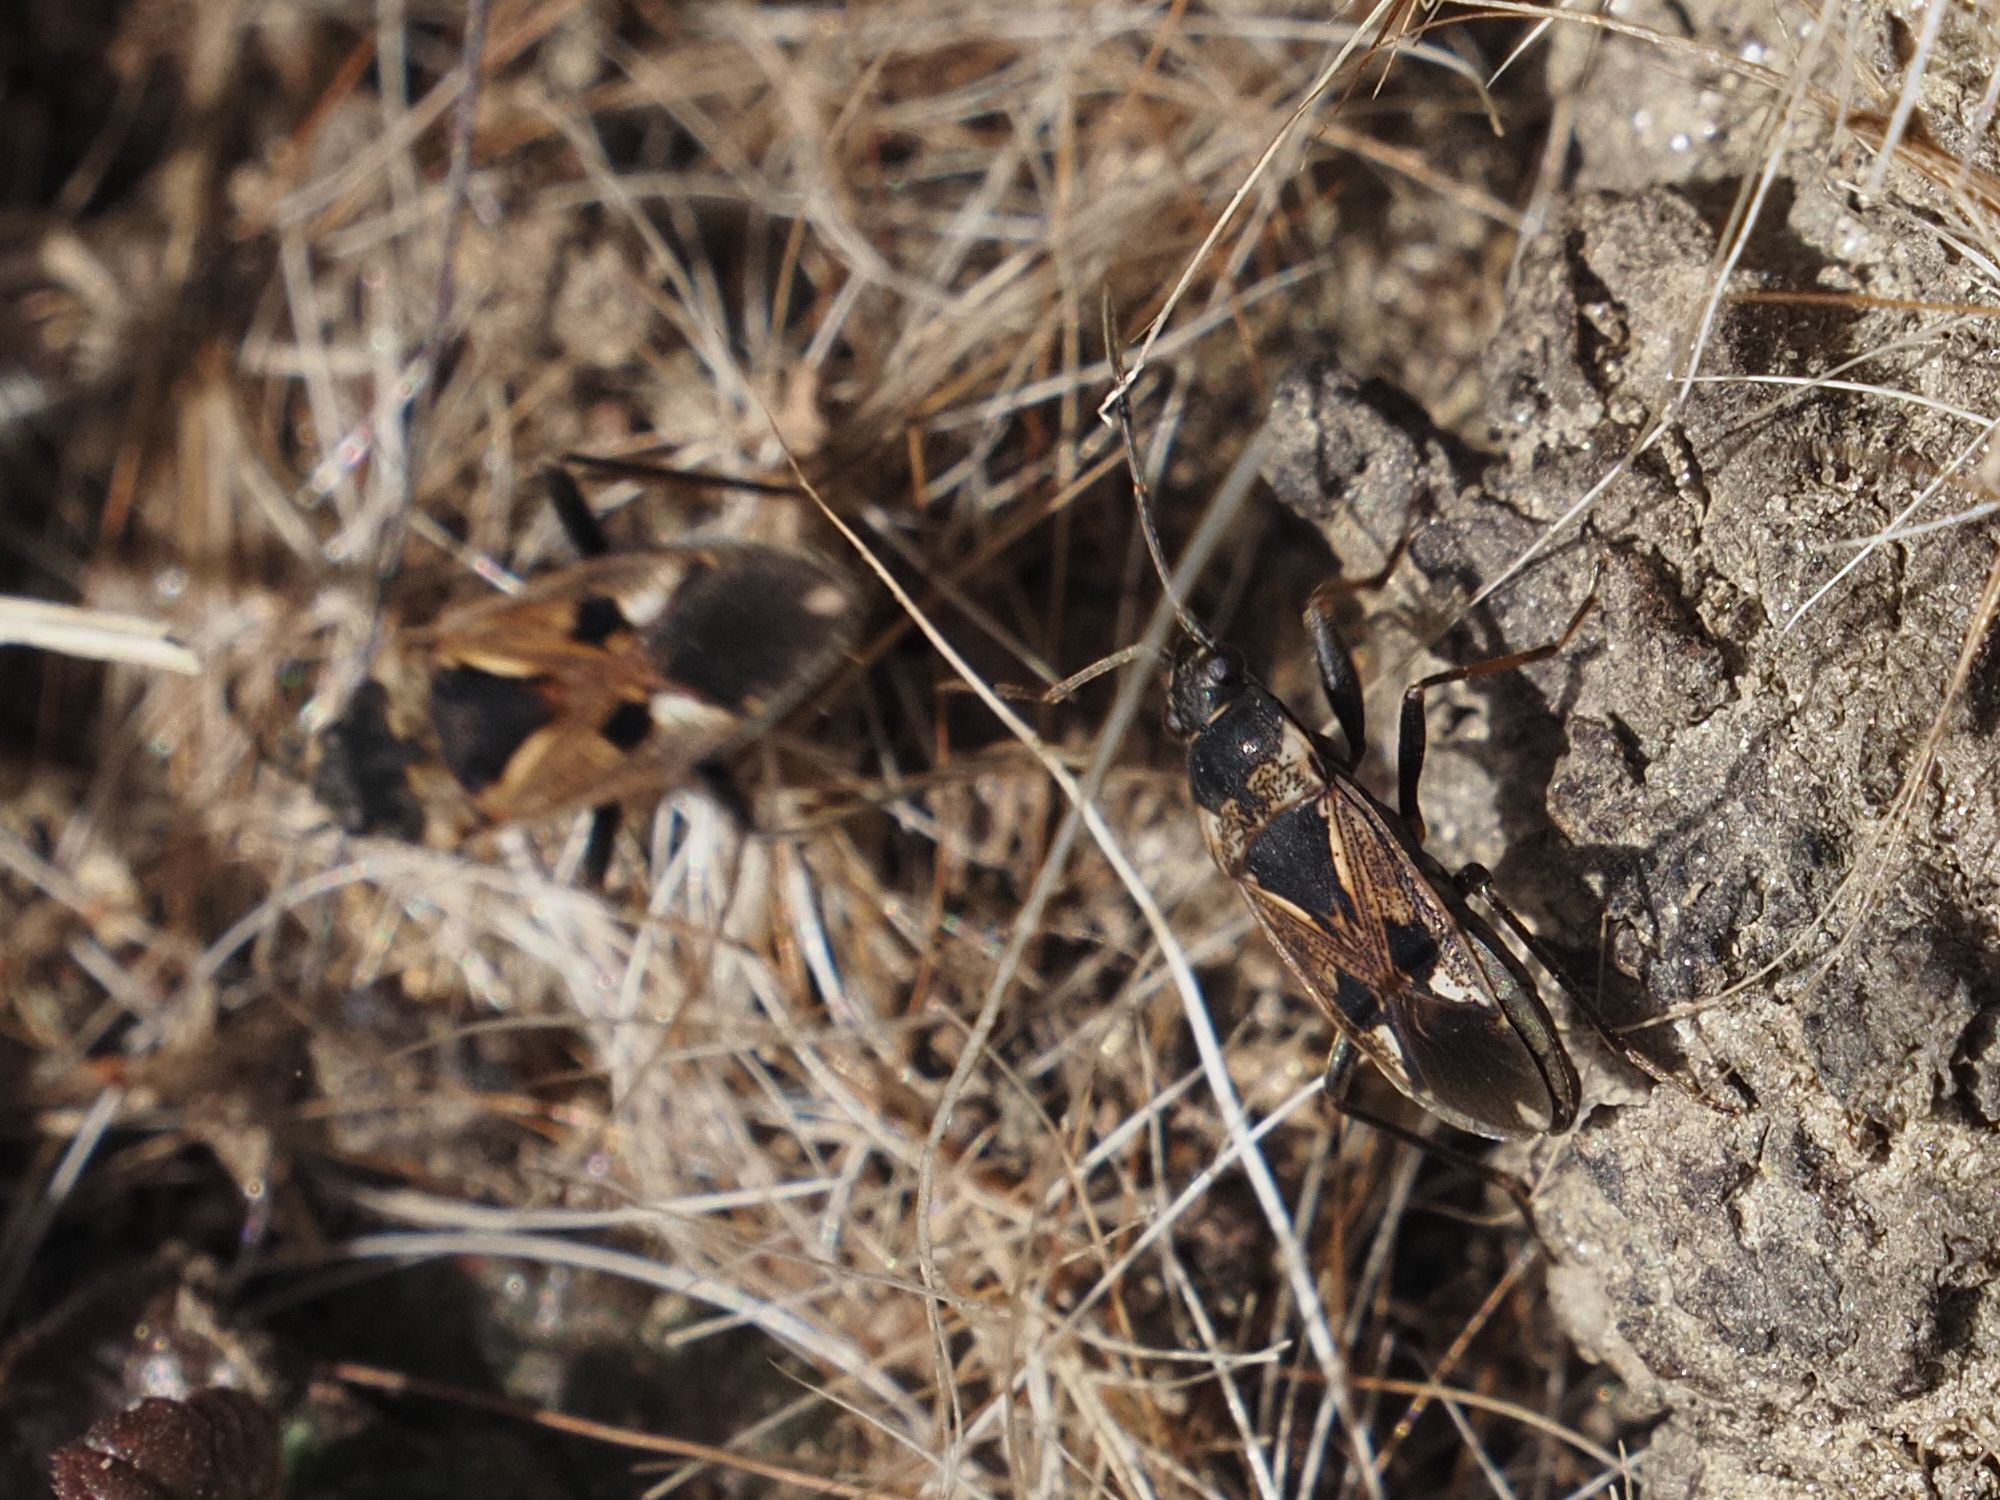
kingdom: Animalia
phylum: Arthropoda
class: Insecta
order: Hemiptera
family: Rhyparochromidae
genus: Rhyparochromus
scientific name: Rhyparochromus vulgaris
